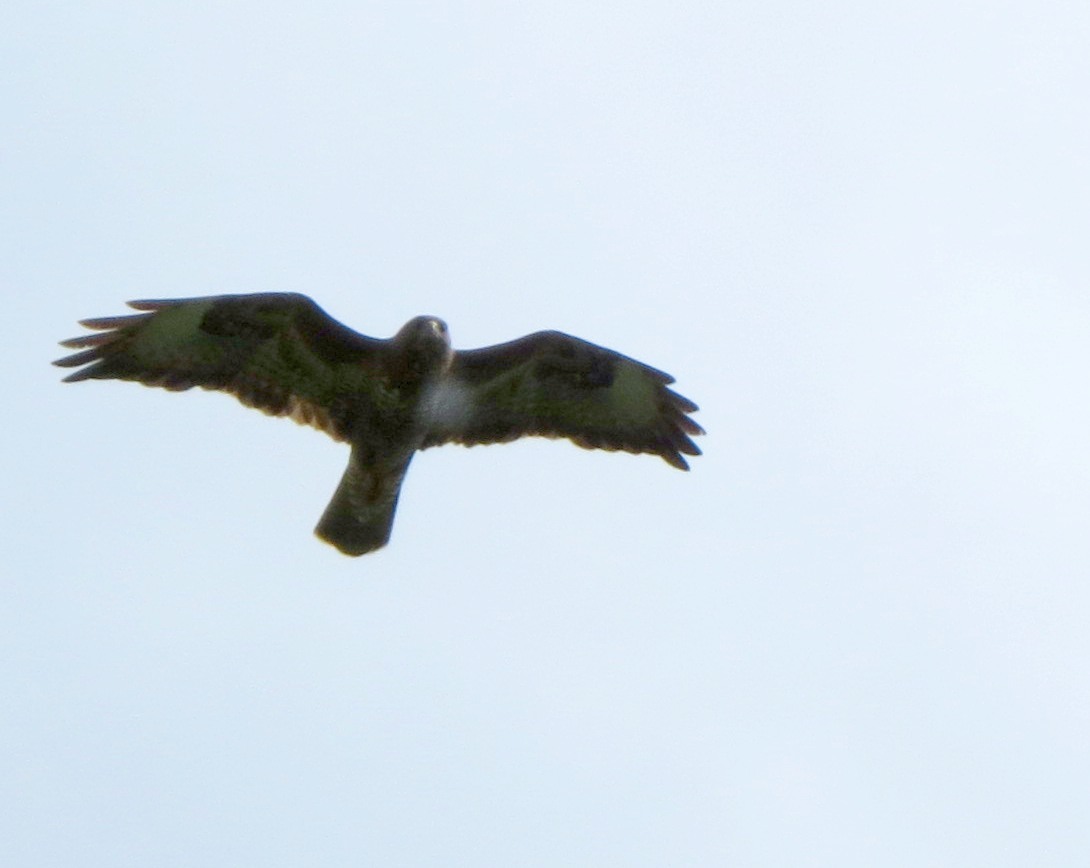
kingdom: Animalia
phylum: Chordata
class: Aves
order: Accipitriformes
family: Accipitridae
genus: Buteo
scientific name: Buteo buteo
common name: Common buzzard
